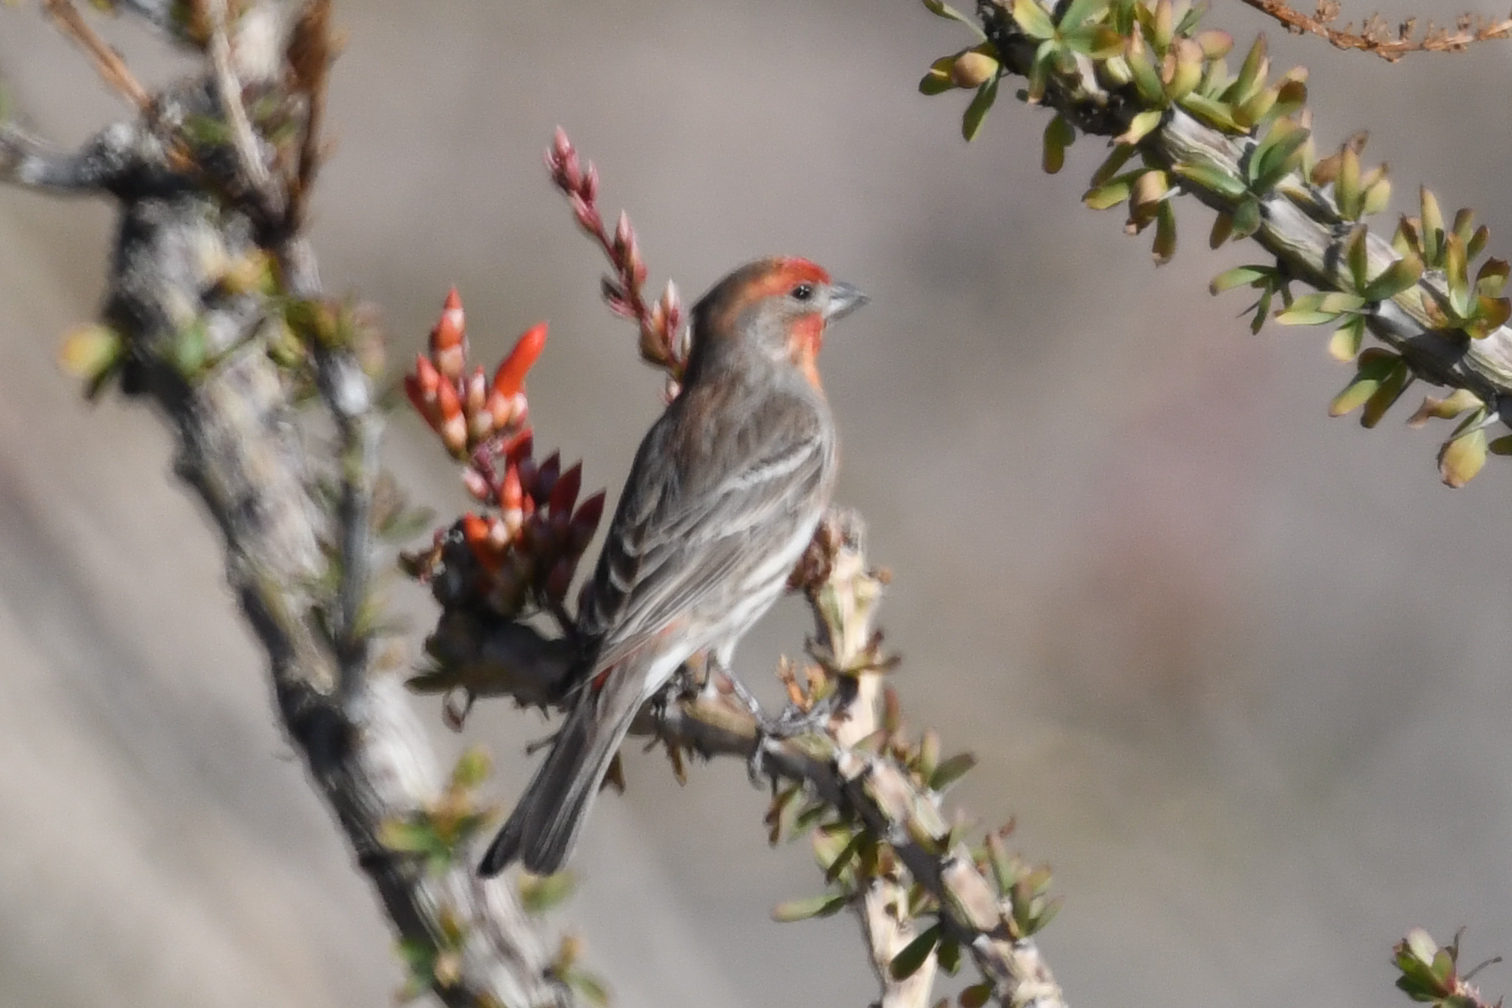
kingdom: Animalia
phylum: Chordata
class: Aves
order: Passeriformes
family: Fringillidae
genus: Haemorhous
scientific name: Haemorhous mexicanus
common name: House finch
